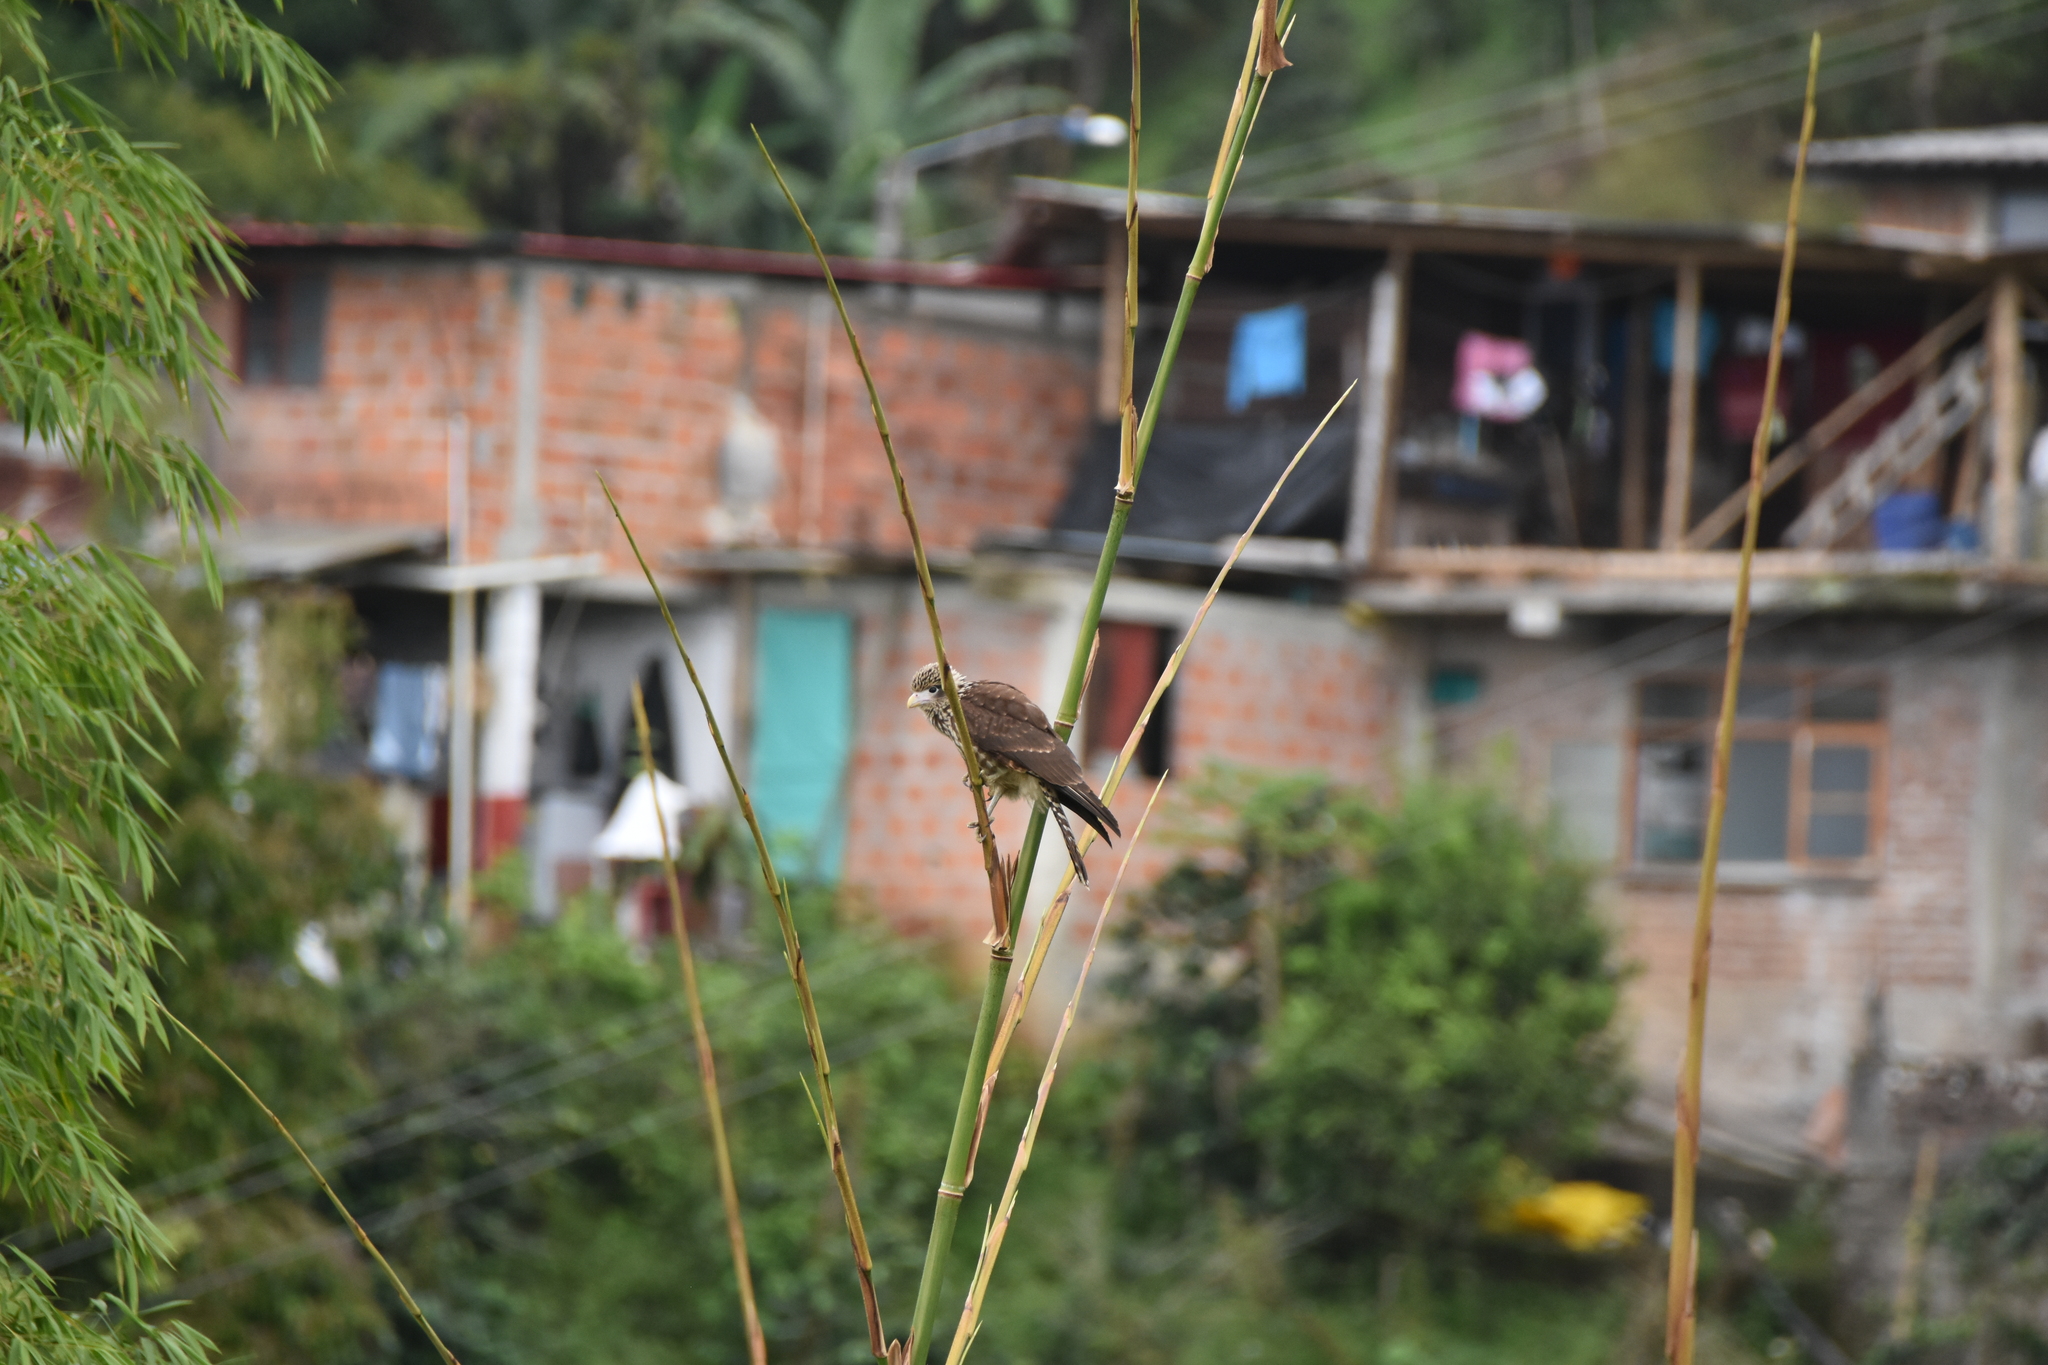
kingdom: Animalia
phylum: Chordata
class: Aves
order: Falconiformes
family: Falconidae
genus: Daptrius
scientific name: Daptrius
